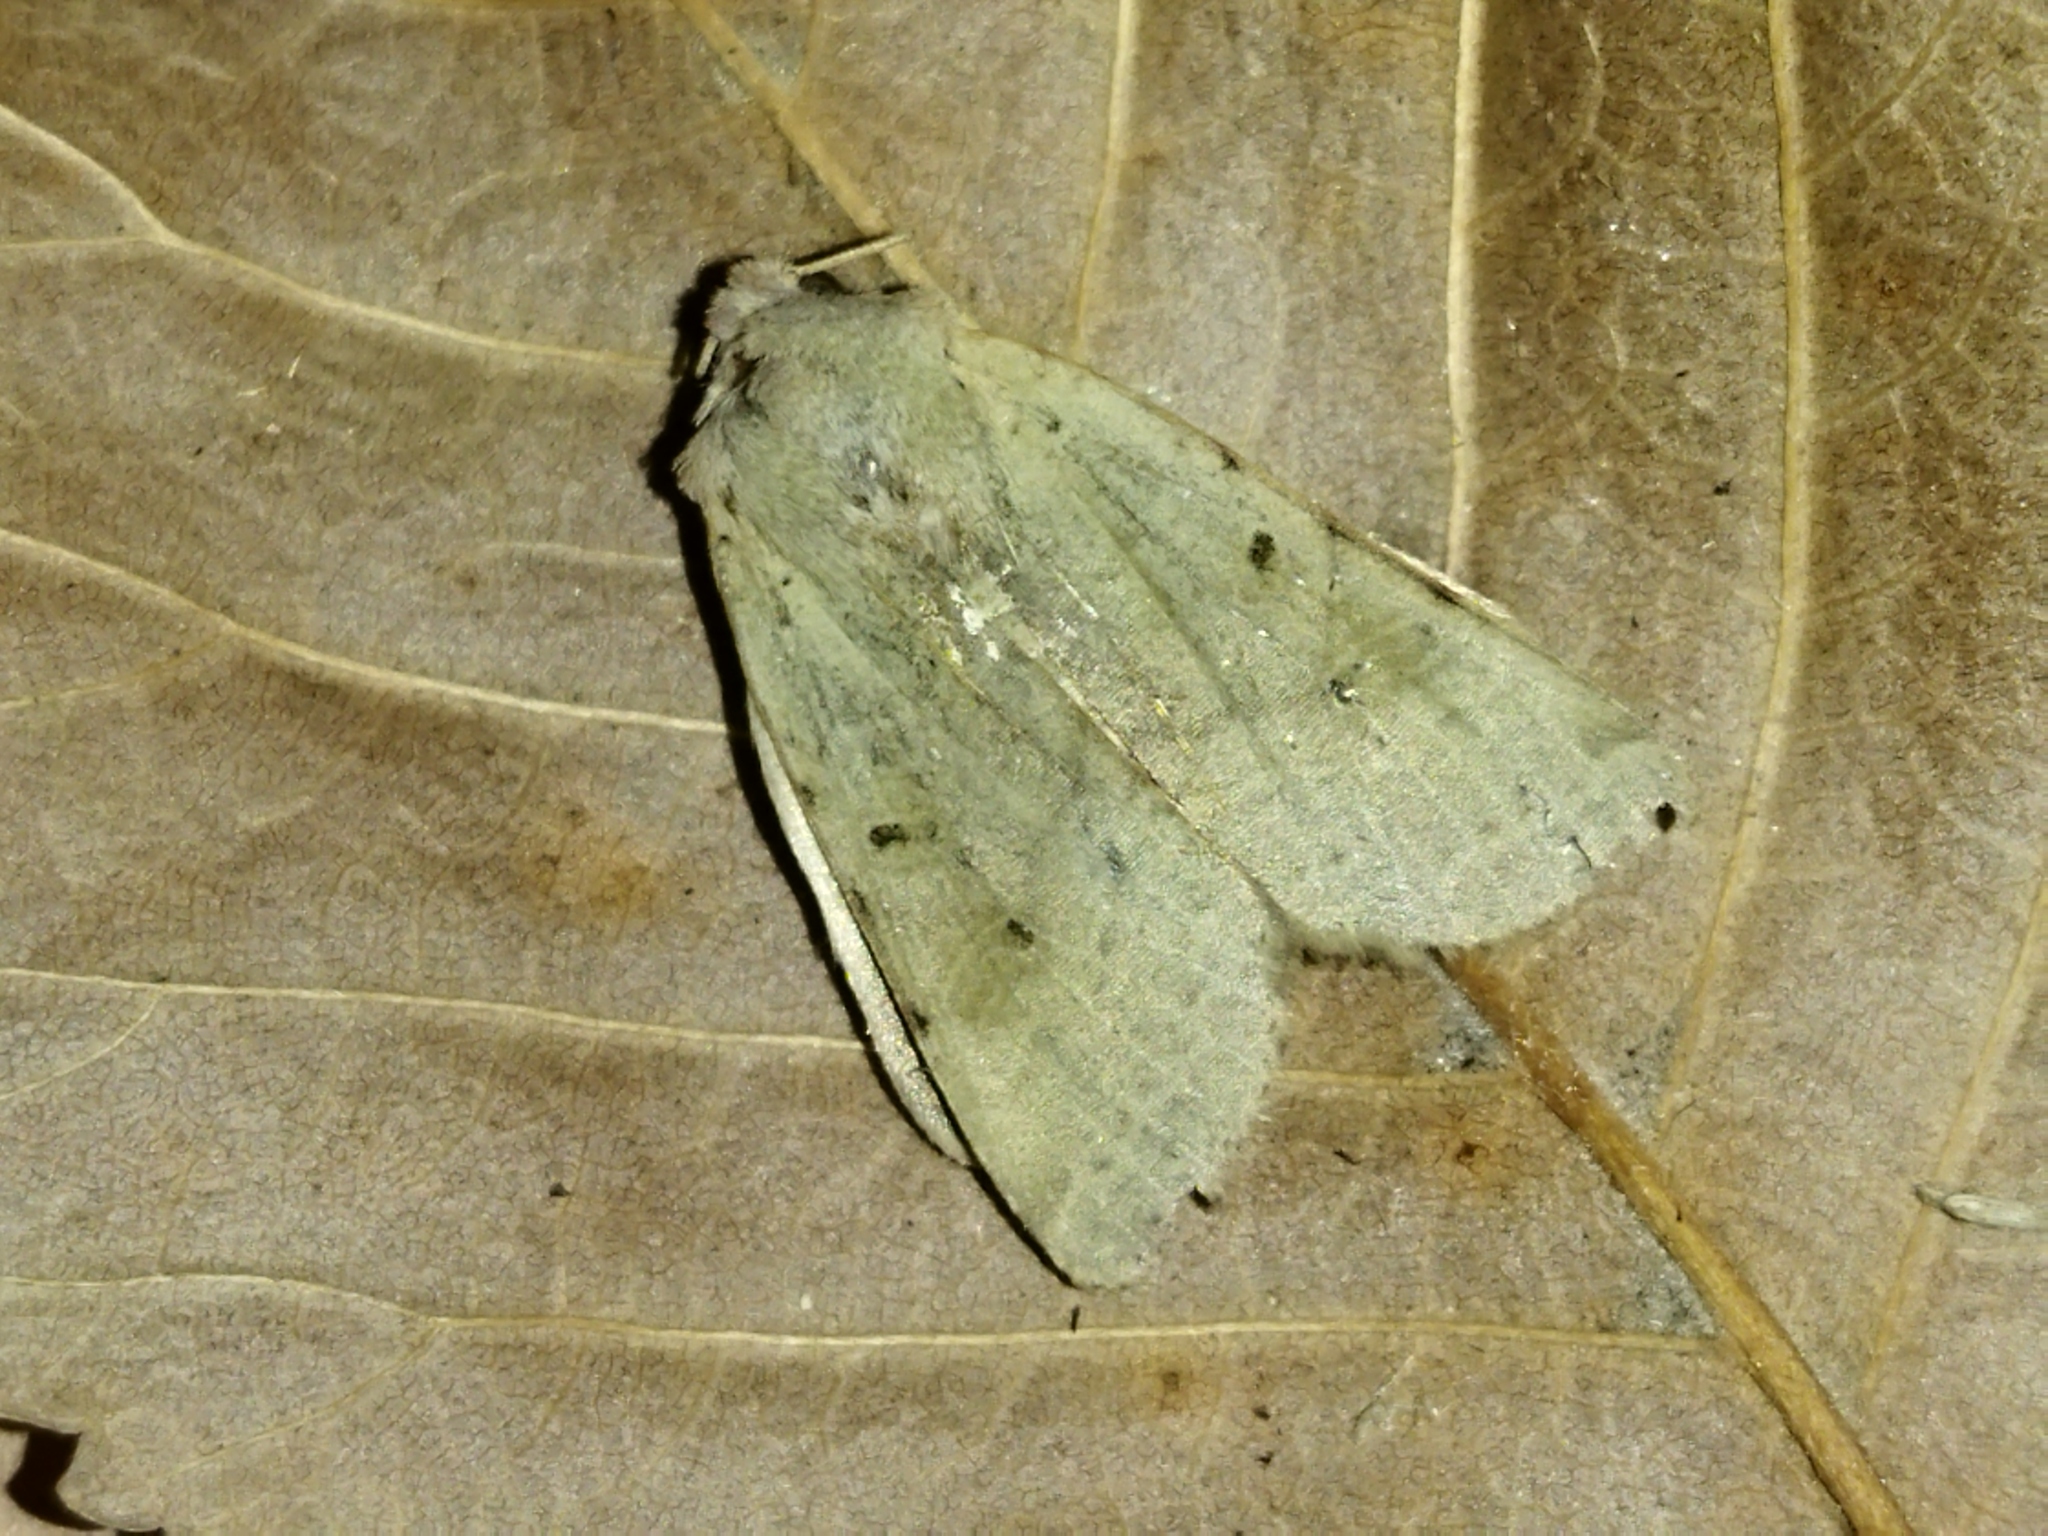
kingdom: Animalia
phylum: Arthropoda
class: Insecta
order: Lepidoptera
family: Noctuidae
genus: Agrochola
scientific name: Agrochola lychnidis
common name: Beaded chestnut
